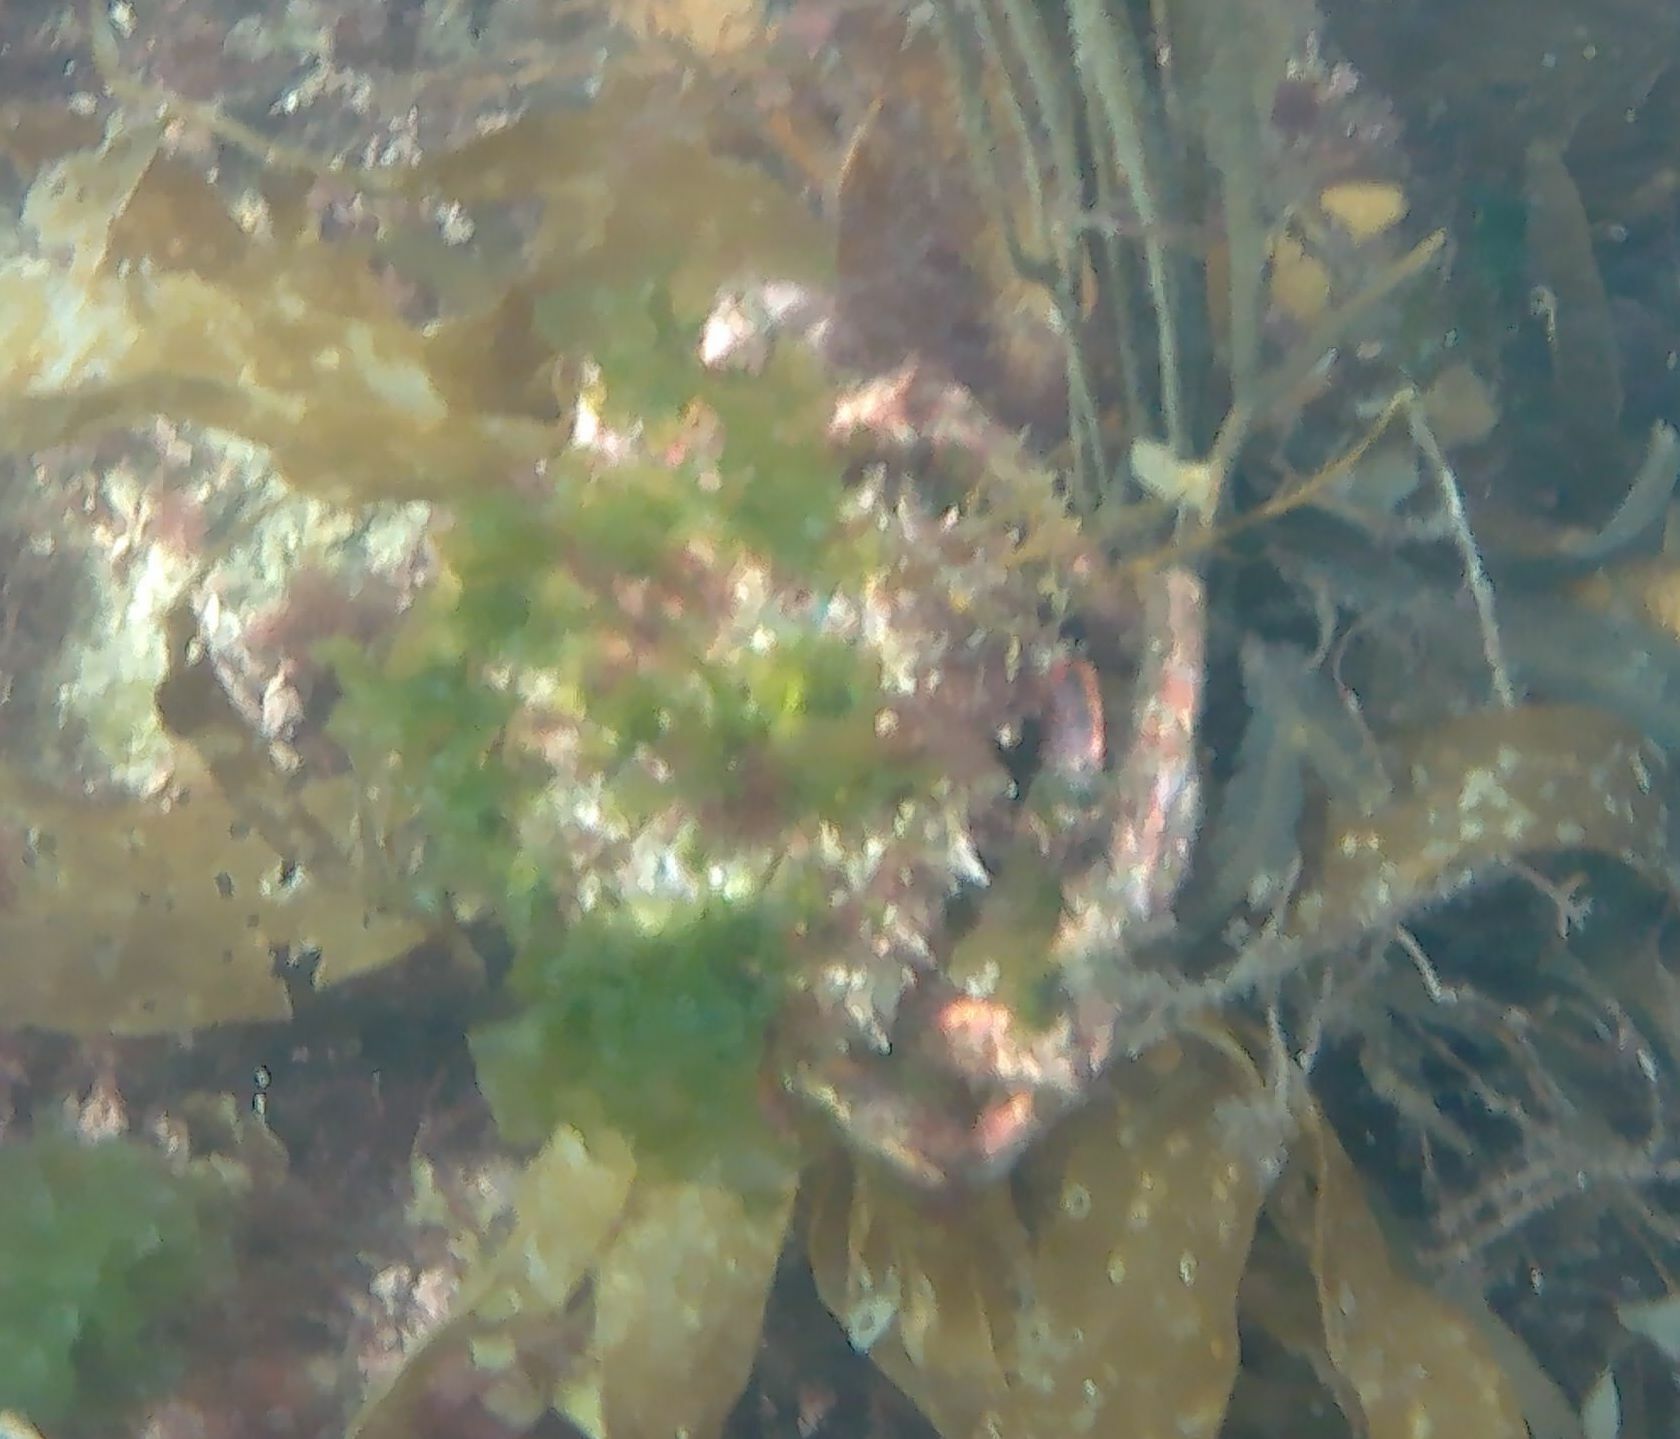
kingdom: Animalia
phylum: Arthropoda
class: Malacostraca
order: Decapoda
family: Majidae
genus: Maja
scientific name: Maja brachydactyla
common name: Common spider crab
